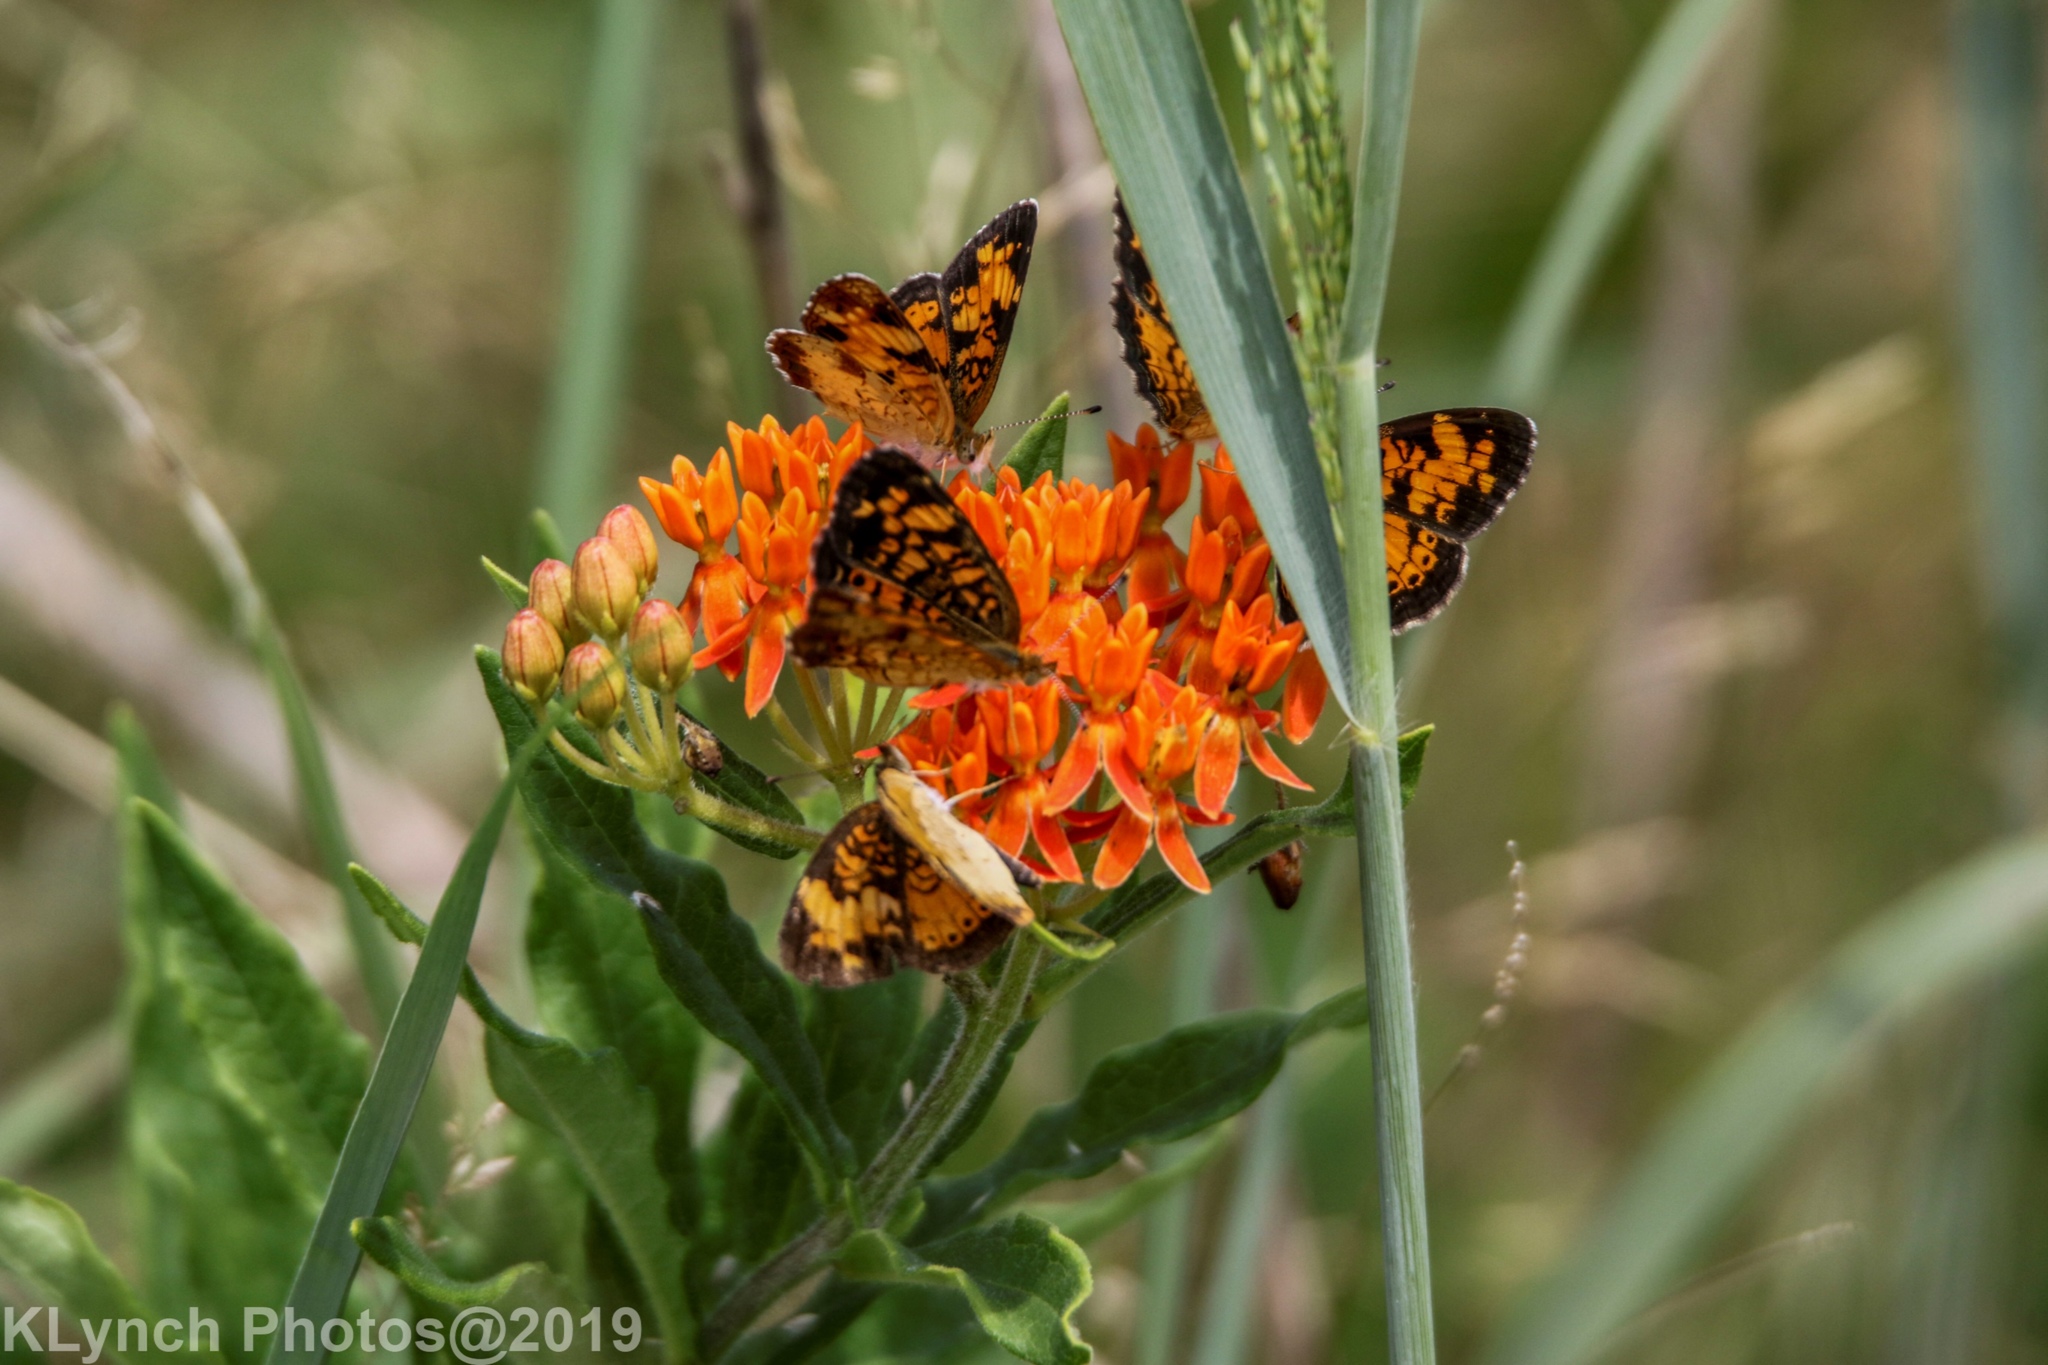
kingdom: Animalia
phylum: Arthropoda
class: Insecta
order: Lepidoptera
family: Nymphalidae
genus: Phyciodes
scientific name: Phyciodes tharos
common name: Pearl crescent
